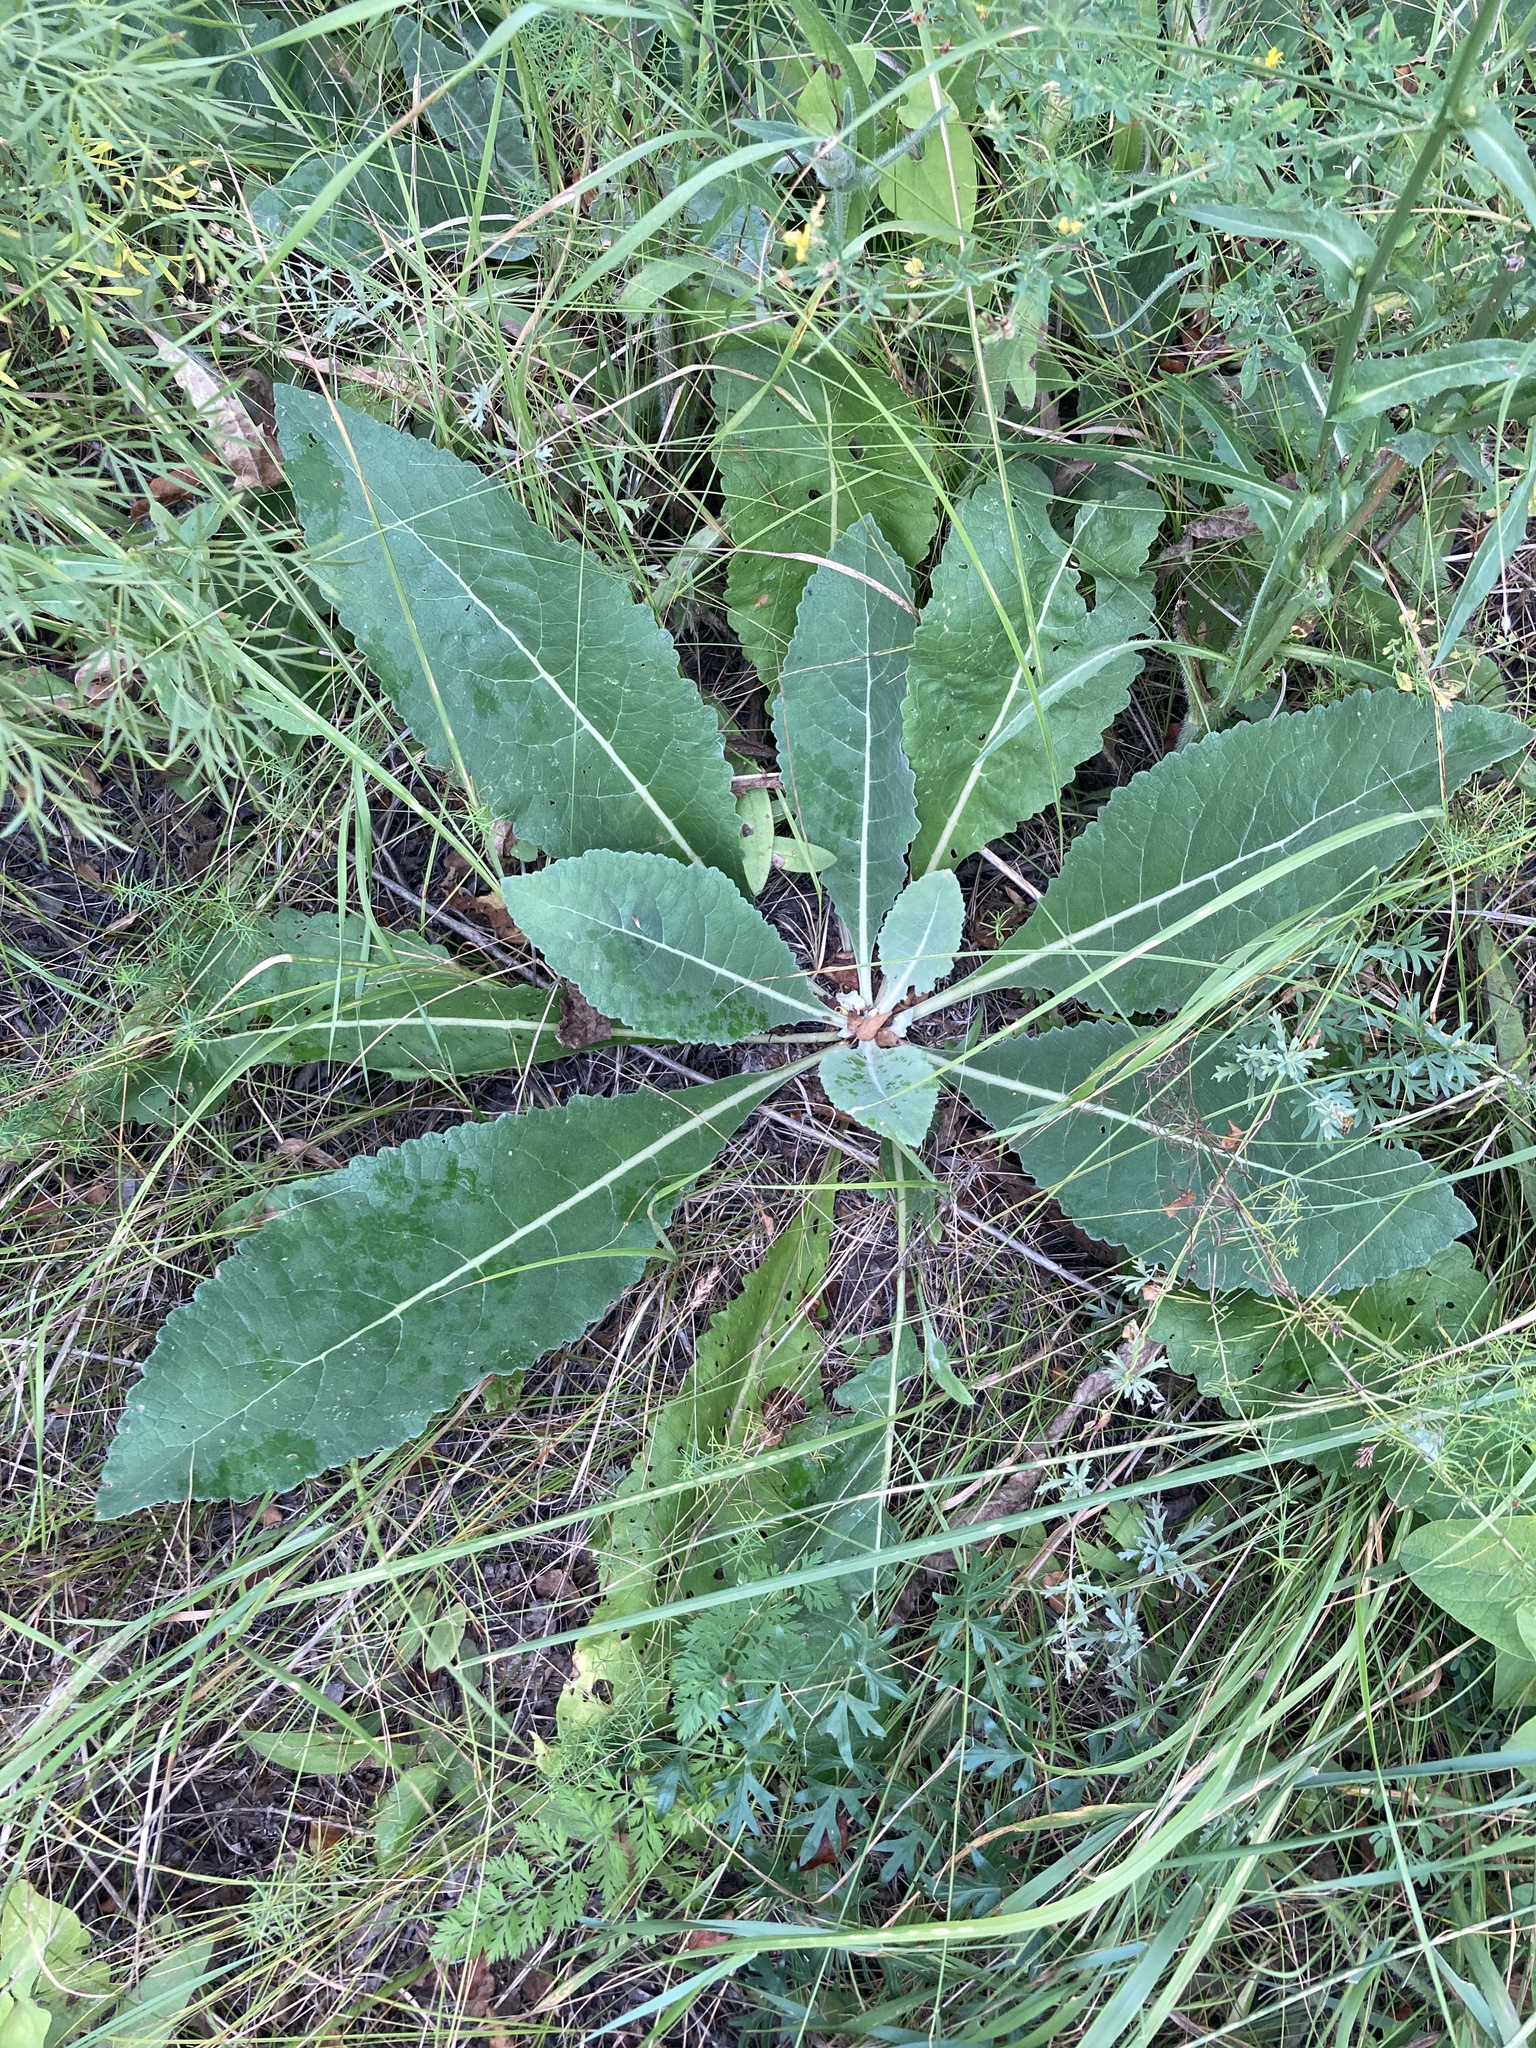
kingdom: Plantae
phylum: Tracheophyta
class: Magnoliopsida
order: Lamiales
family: Scrophulariaceae
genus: Verbascum
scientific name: Verbascum lychnitis
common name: White mullein
